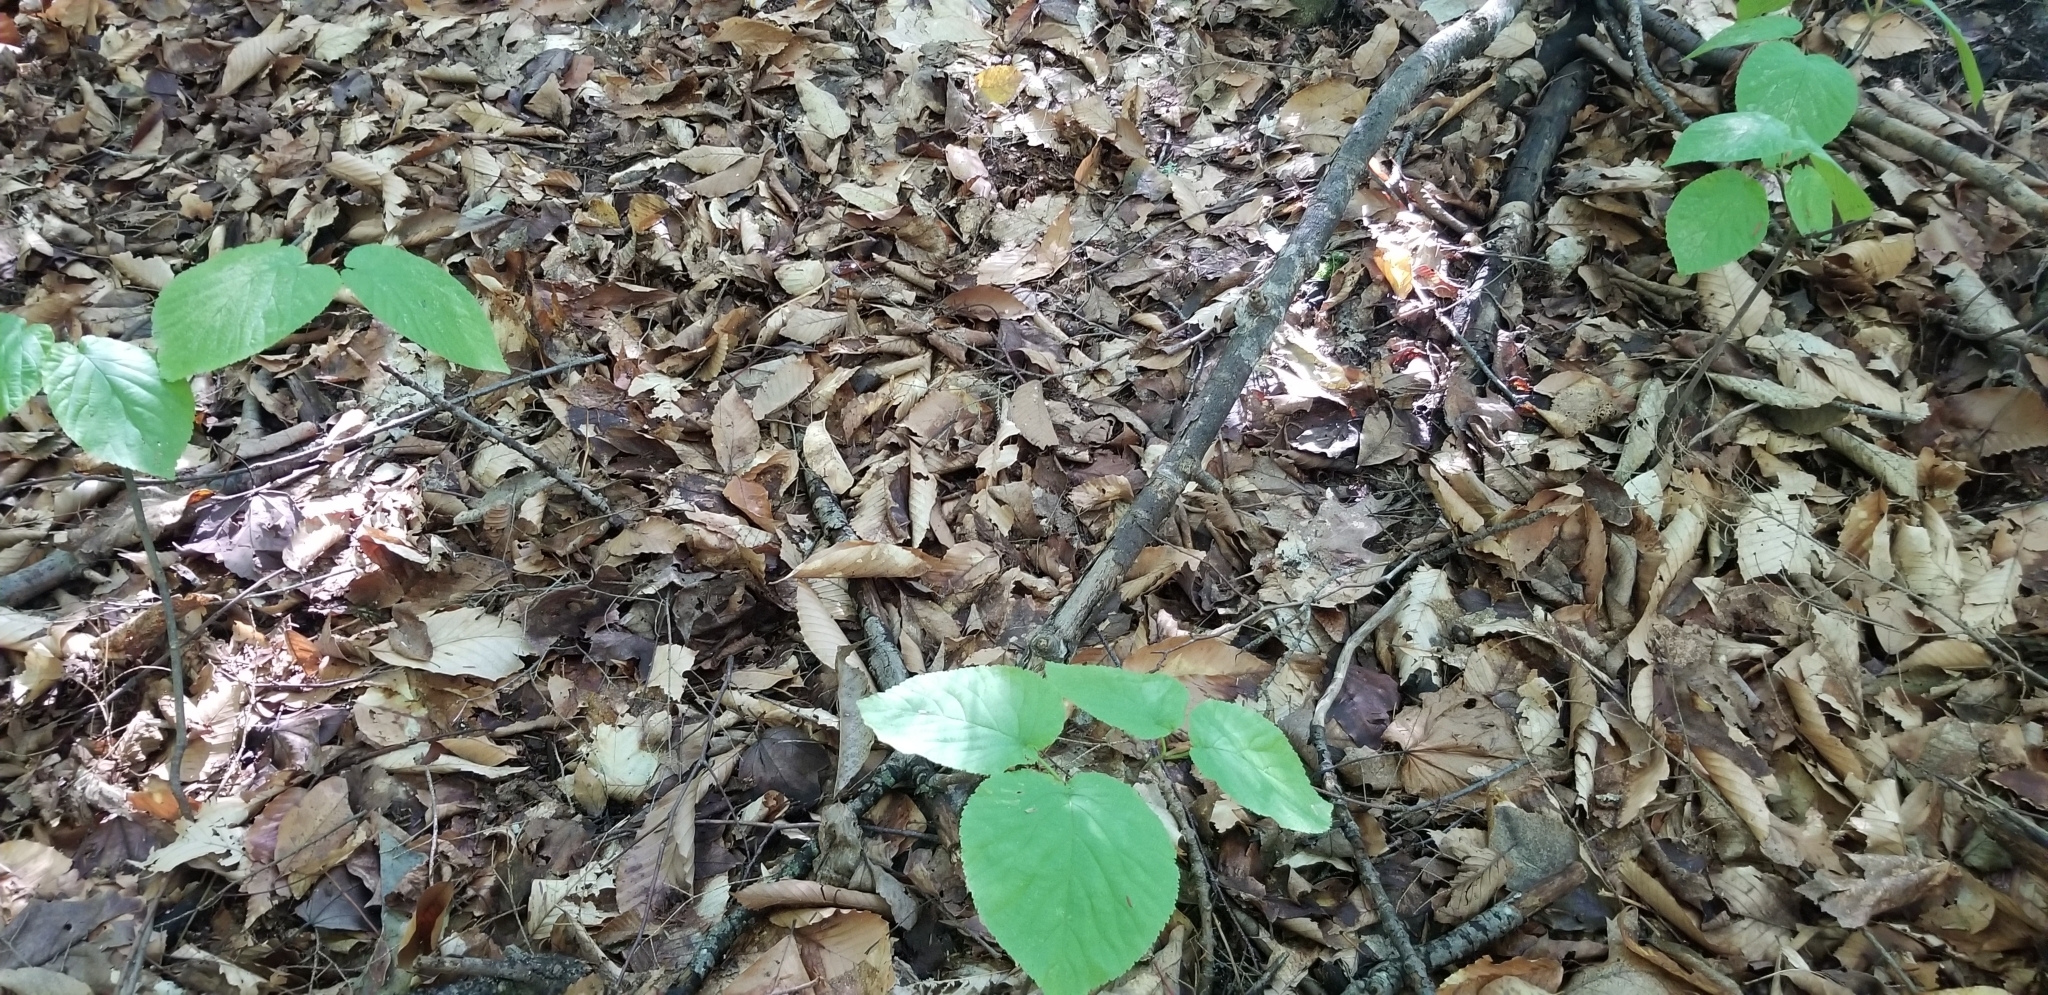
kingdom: Plantae
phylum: Tracheophyta
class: Magnoliopsida
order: Dipsacales
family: Viburnaceae
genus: Viburnum
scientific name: Viburnum lantanoides
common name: Hobblebush
